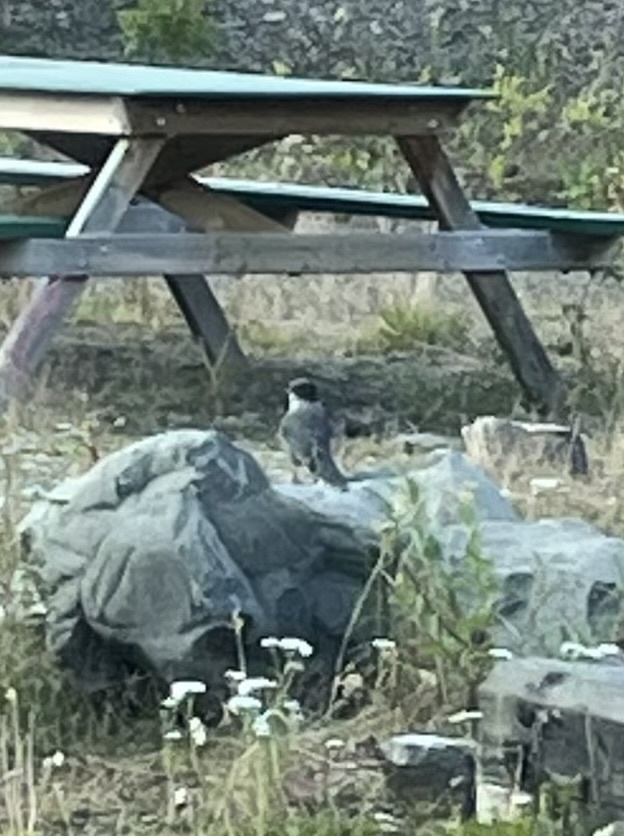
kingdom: Animalia
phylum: Chordata
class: Aves
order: Passeriformes
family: Corvidae
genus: Perisoreus
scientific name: Perisoreus canadensis
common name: Gray jay
